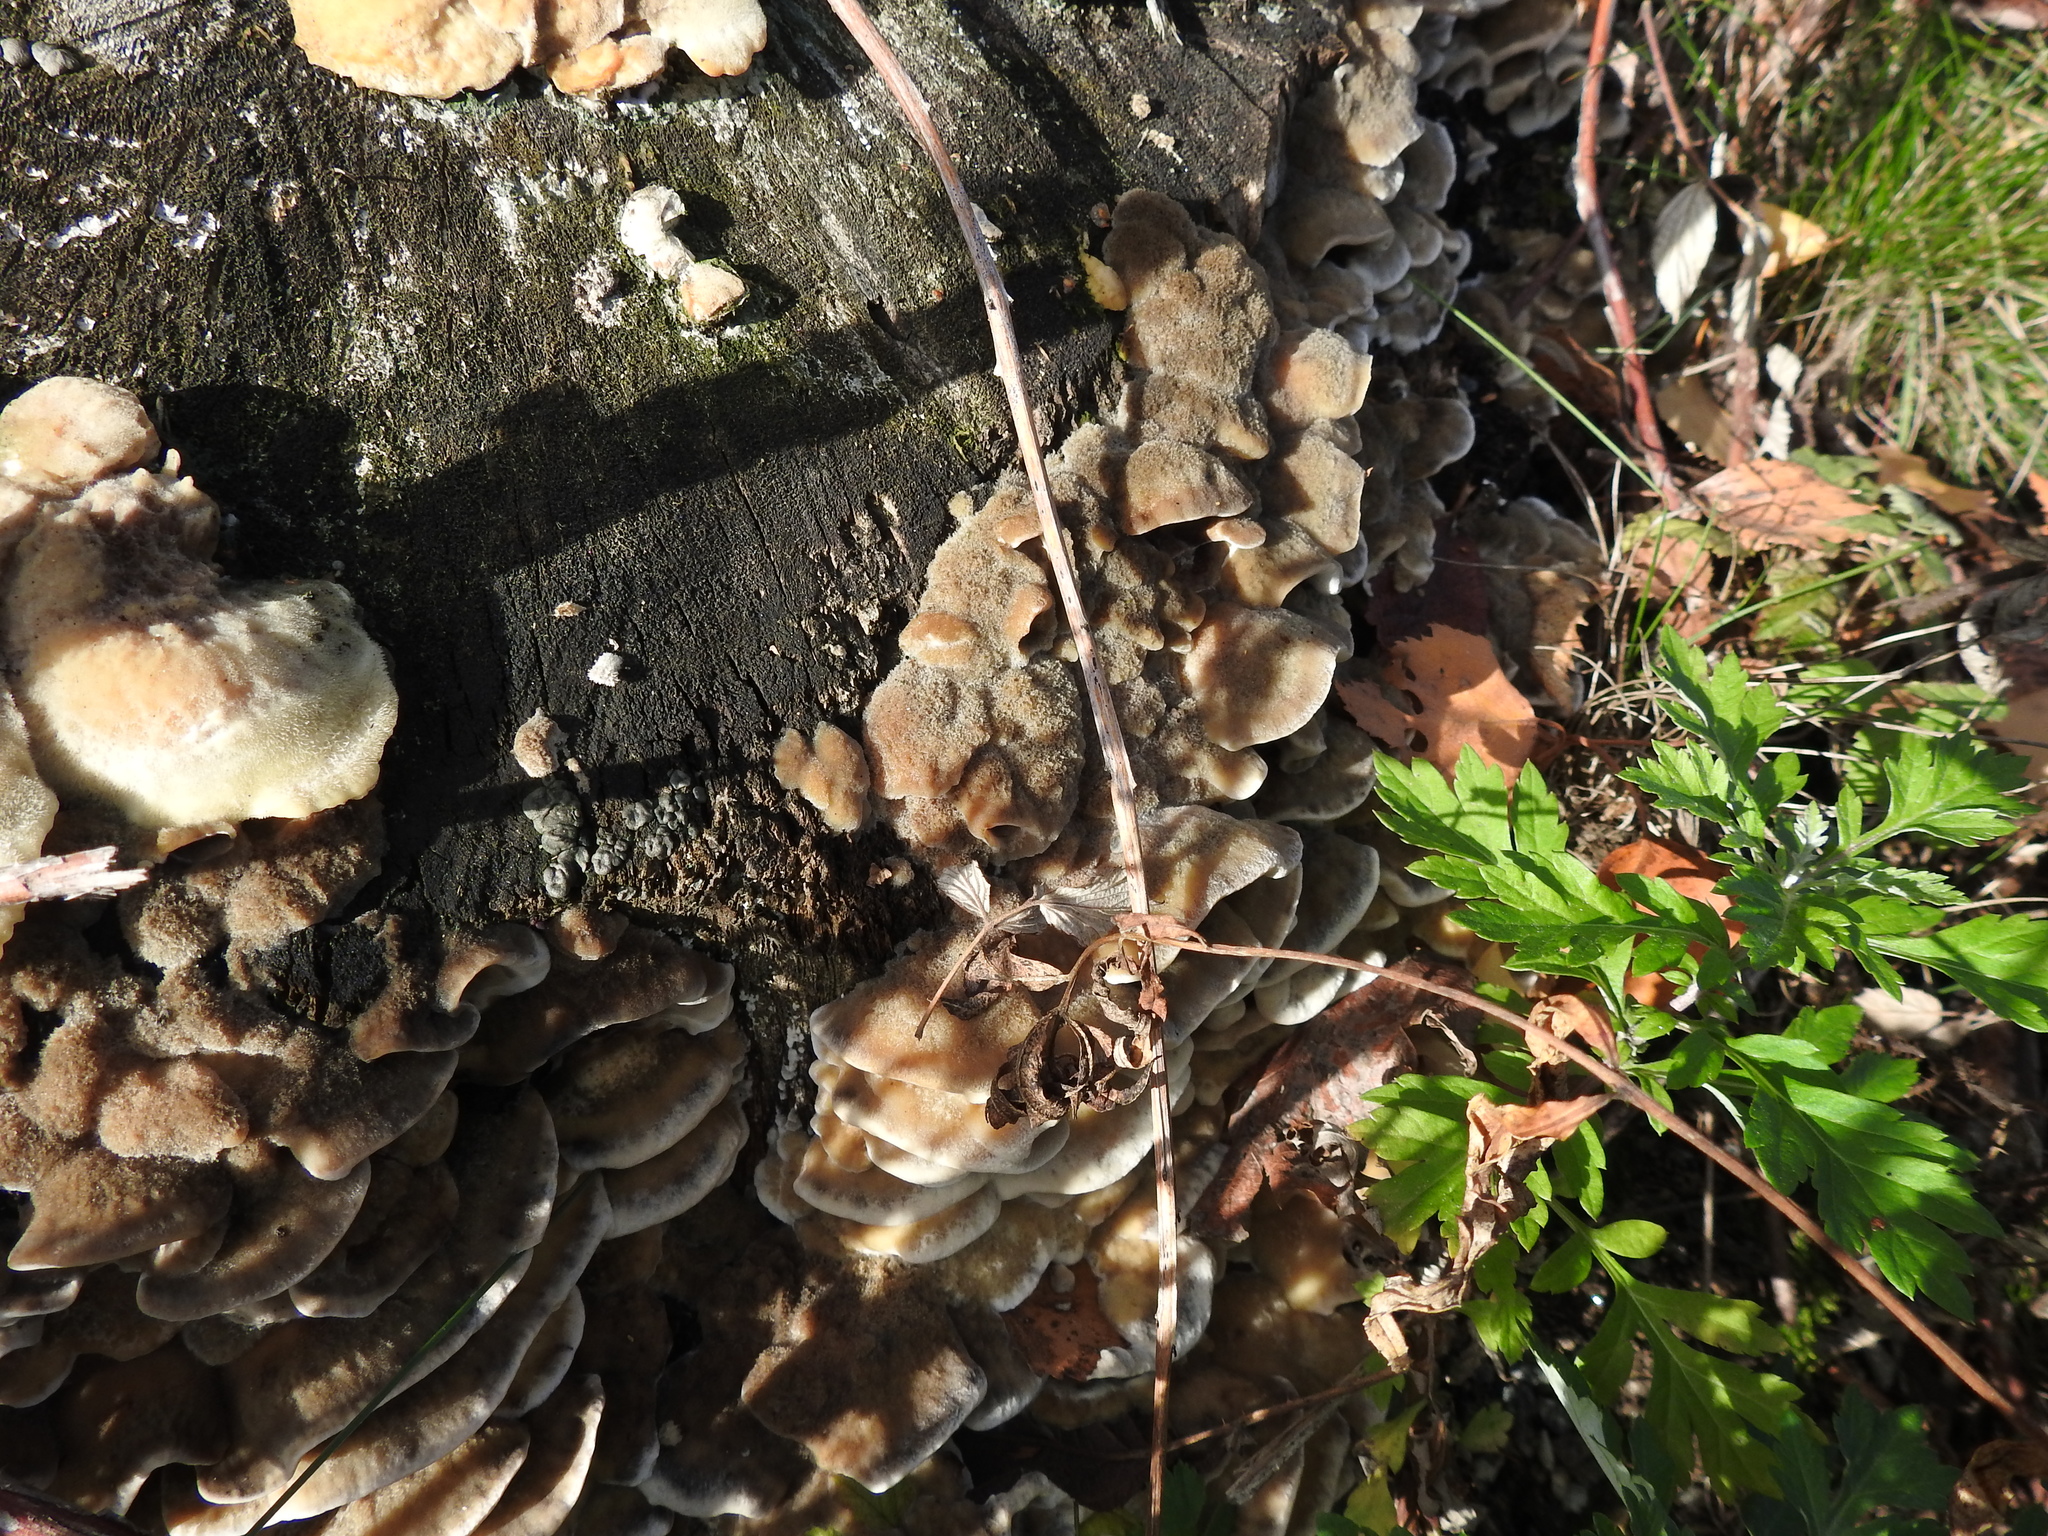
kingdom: Fungi
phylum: Basidiomycota
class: Agaricomycetes
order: Polyporales
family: Phanerochaetaceae
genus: Bjerkandera
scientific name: Bjerkandera adusta
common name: Smoky bracket
